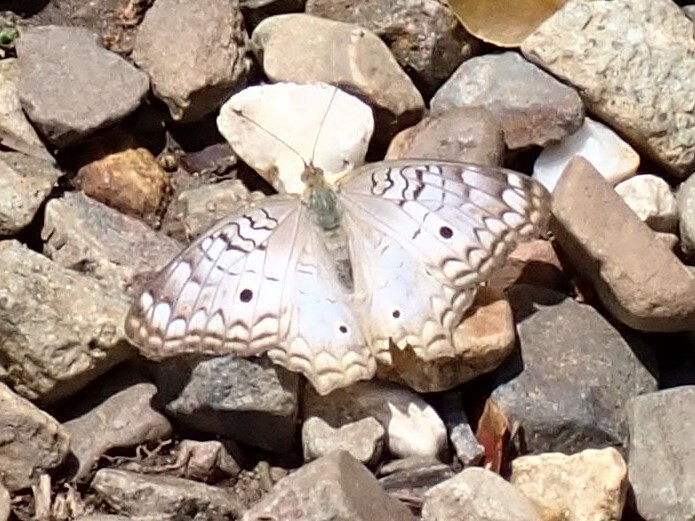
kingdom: Animalia
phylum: Arthropoda
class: Insecta
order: Lepidoptera
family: Nymphalidae
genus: Anartia
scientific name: Anartia jatrophae
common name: White peacock
